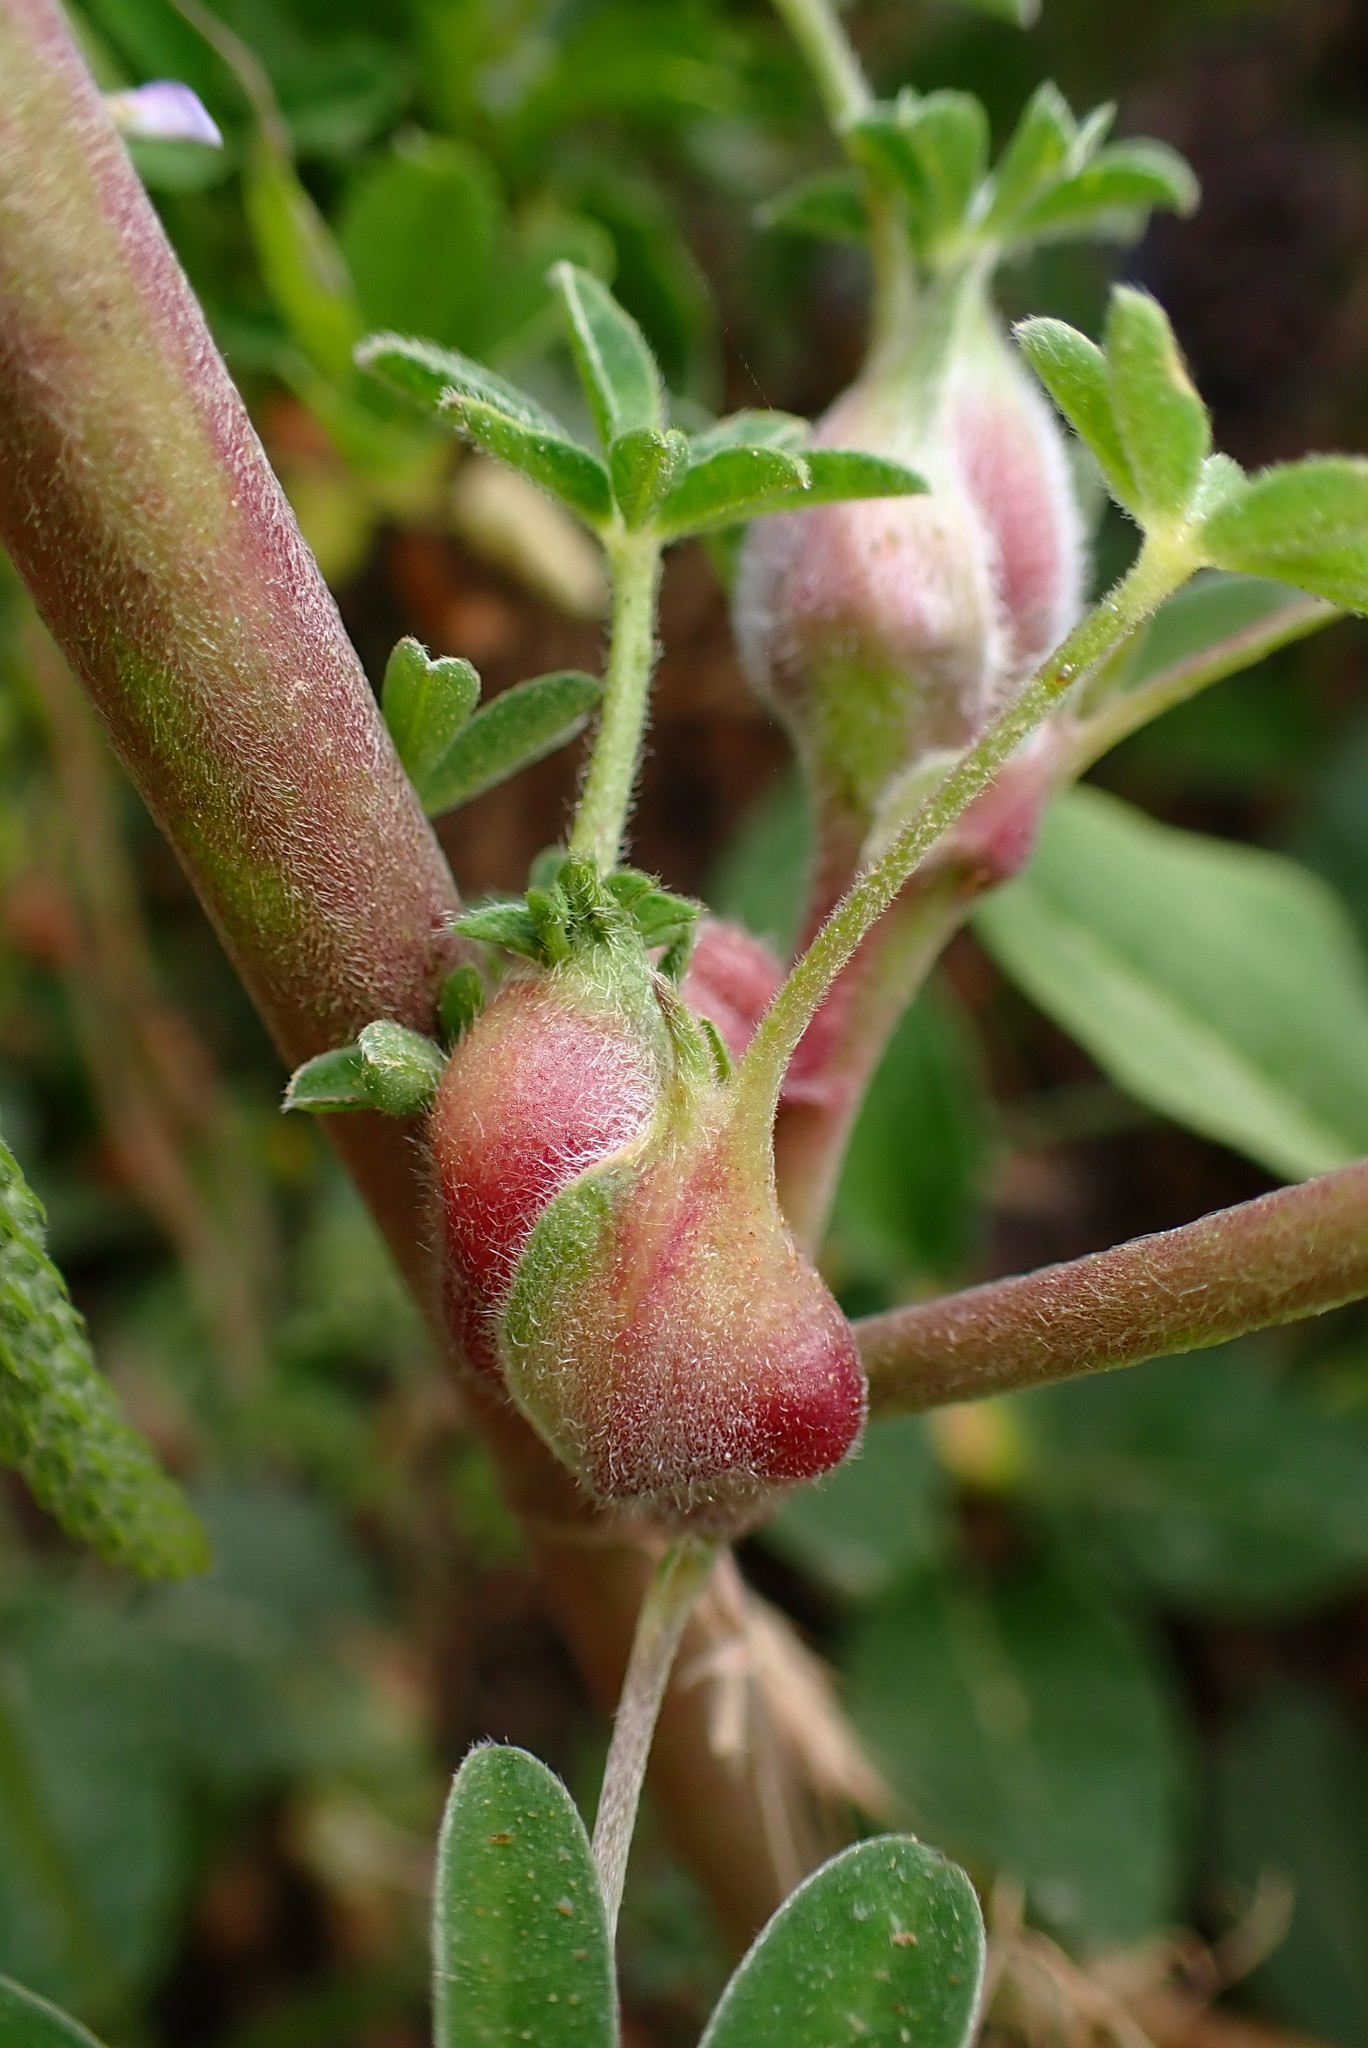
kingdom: Animalia
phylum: Arthropoda
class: Insecta
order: Diptera
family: Cecidomyiidae
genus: Dasineura
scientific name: Dasineura lupini
